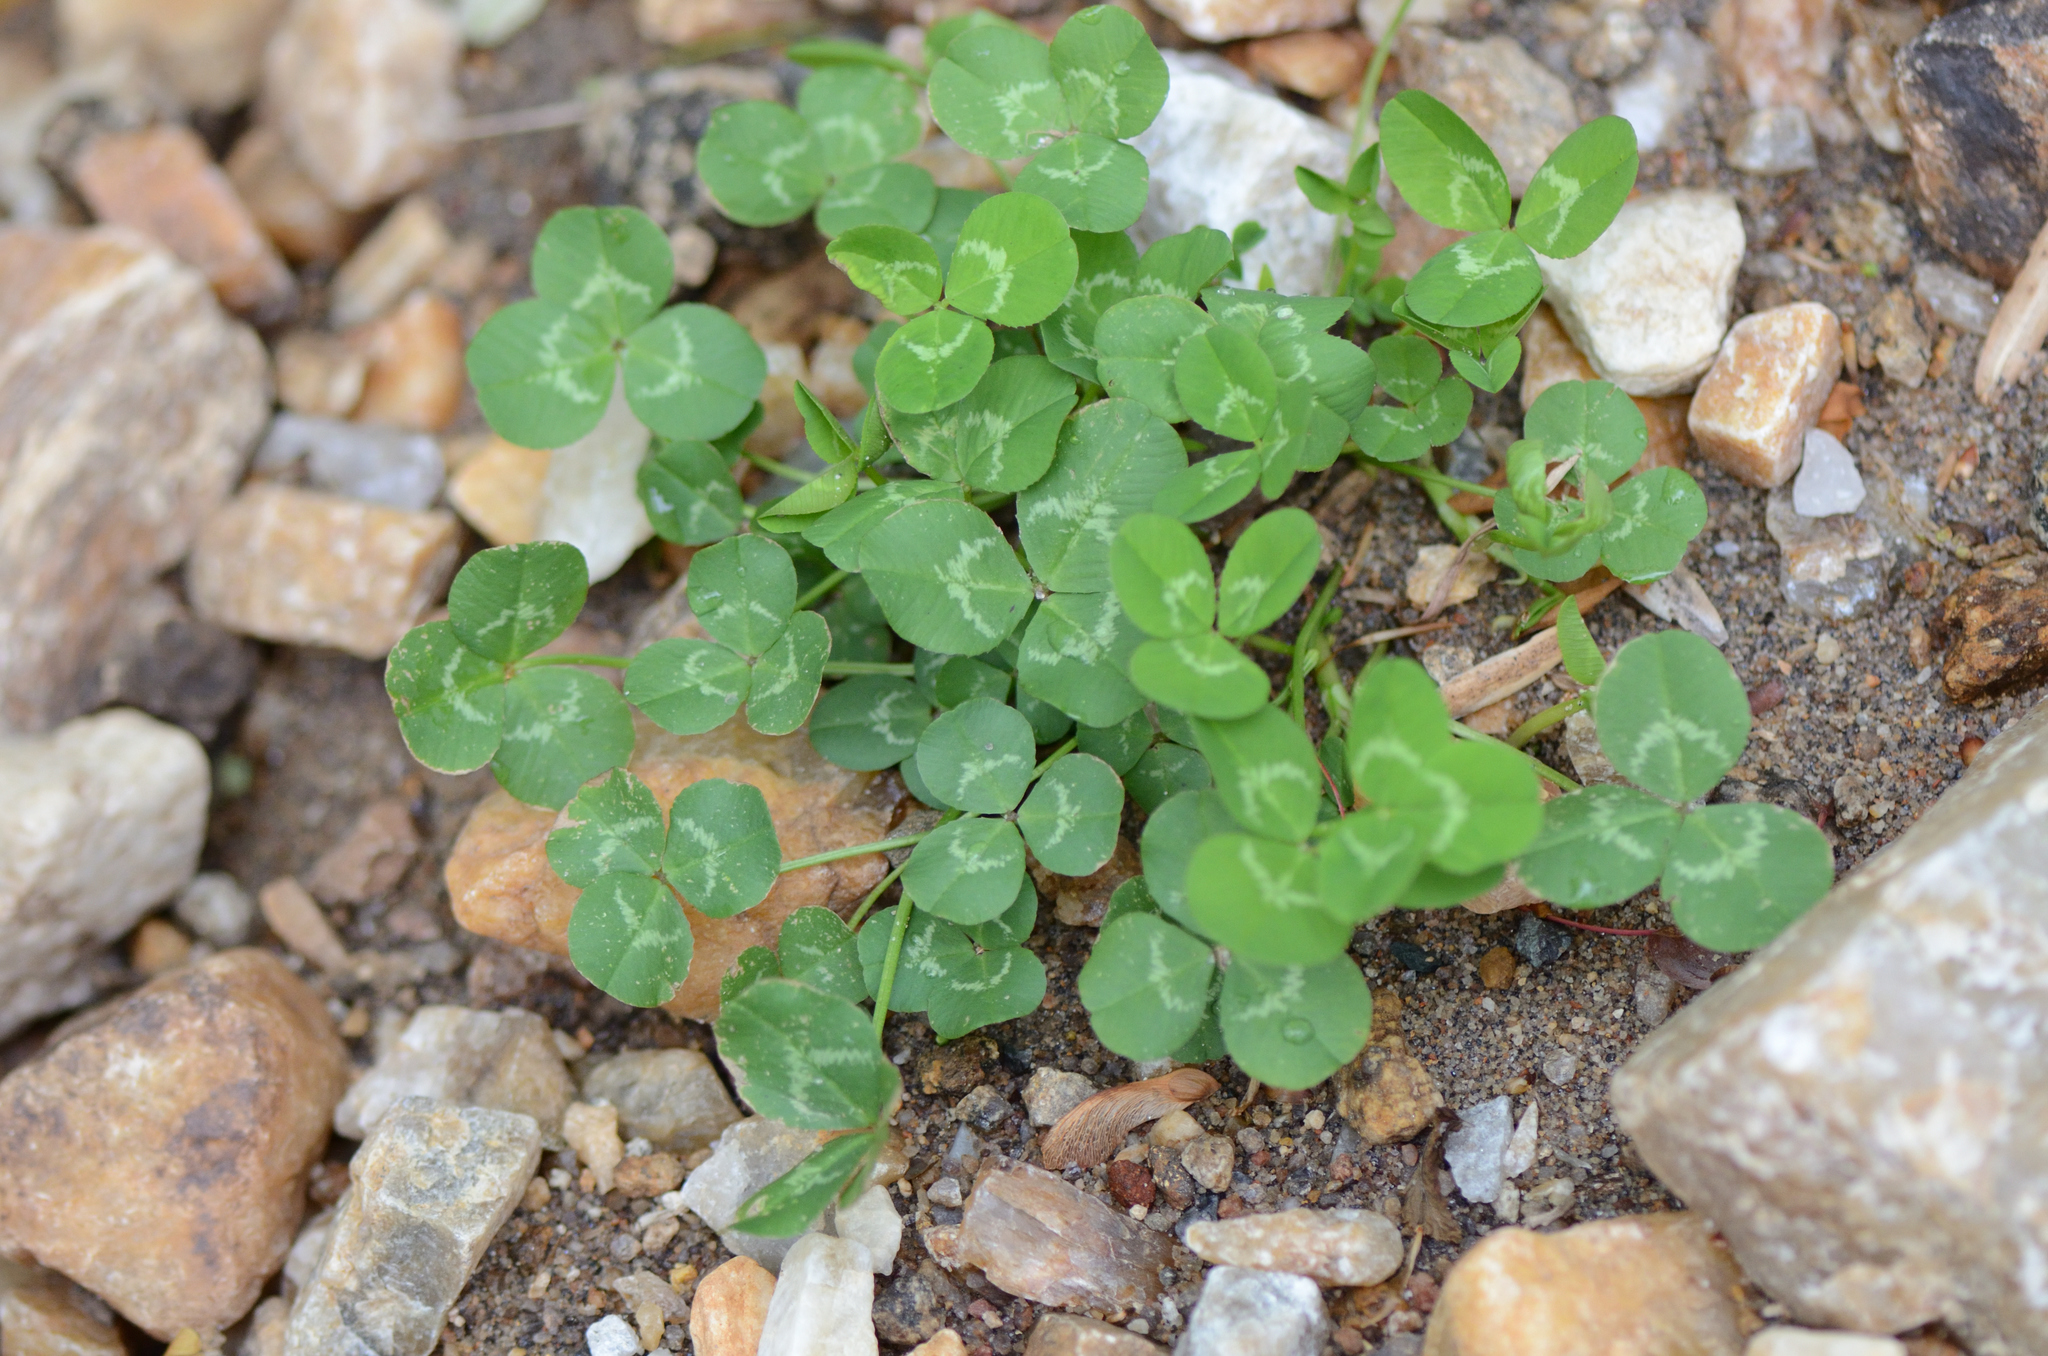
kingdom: Plantae
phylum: Tracheophyta
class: Magnoliopsida
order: Fabales
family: Fabaceae
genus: Trifolium
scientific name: Trifolium repens
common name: White clover
